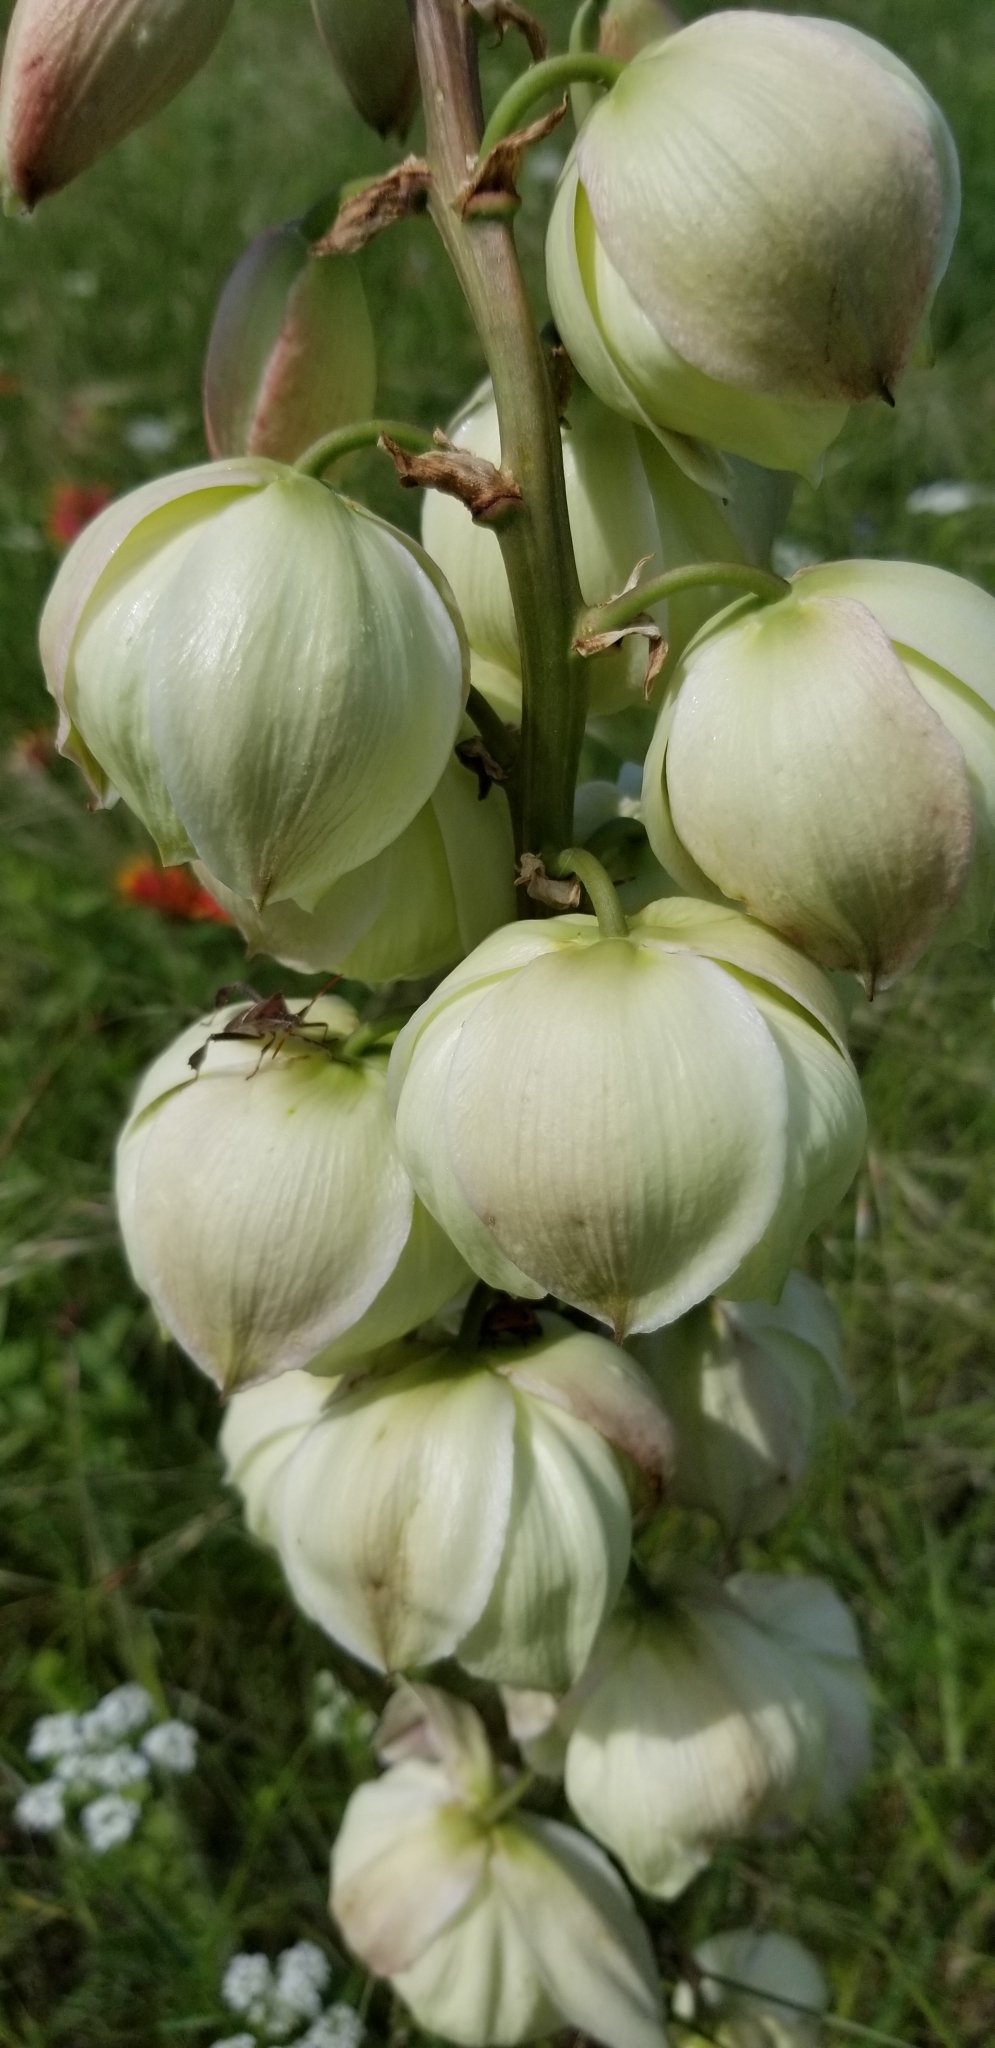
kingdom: Plantae
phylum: Tracheophyta
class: Liliopsida
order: Asparagales
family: Asparagaceae
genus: Yucca
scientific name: Yucca arkansana
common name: Arkansas yucca
